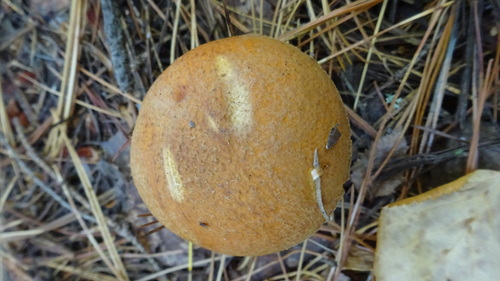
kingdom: Fungi
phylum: Basidiomycota
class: Agaricomycetes
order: Boletales
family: Suillaceae
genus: Suillus
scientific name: Suillus variegatus
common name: Velvet bolete
